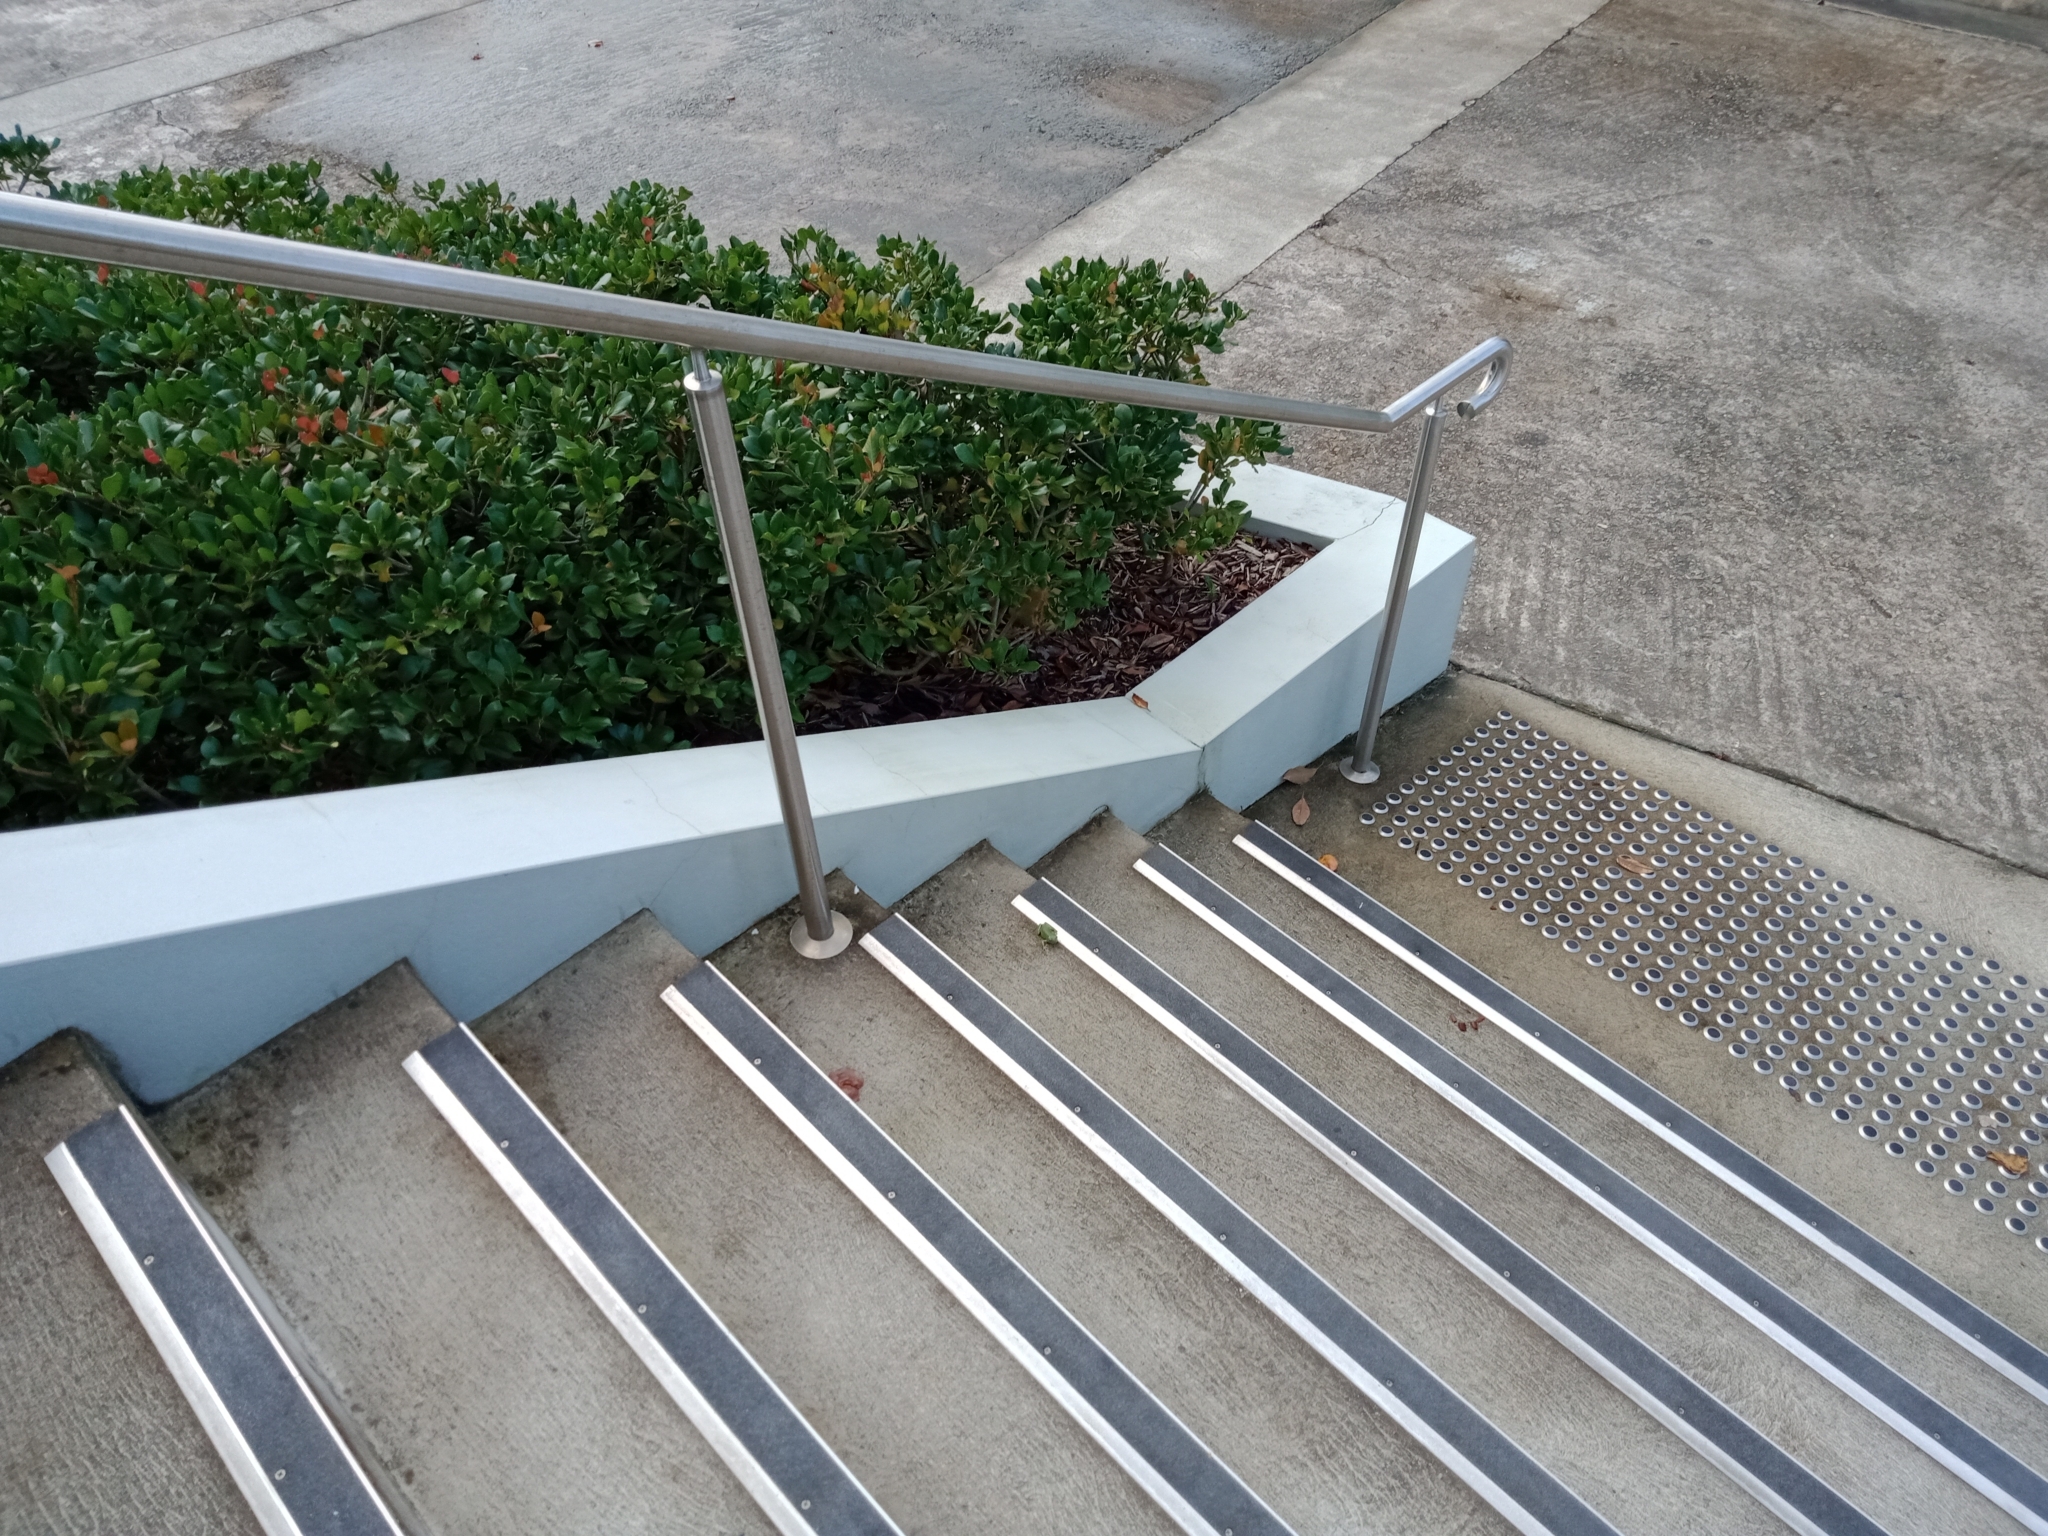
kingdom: Animalia
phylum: Chordata
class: Amphibia
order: Anura
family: Pelodryadidae
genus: Ranoidea
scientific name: Ranoidea caerulea
